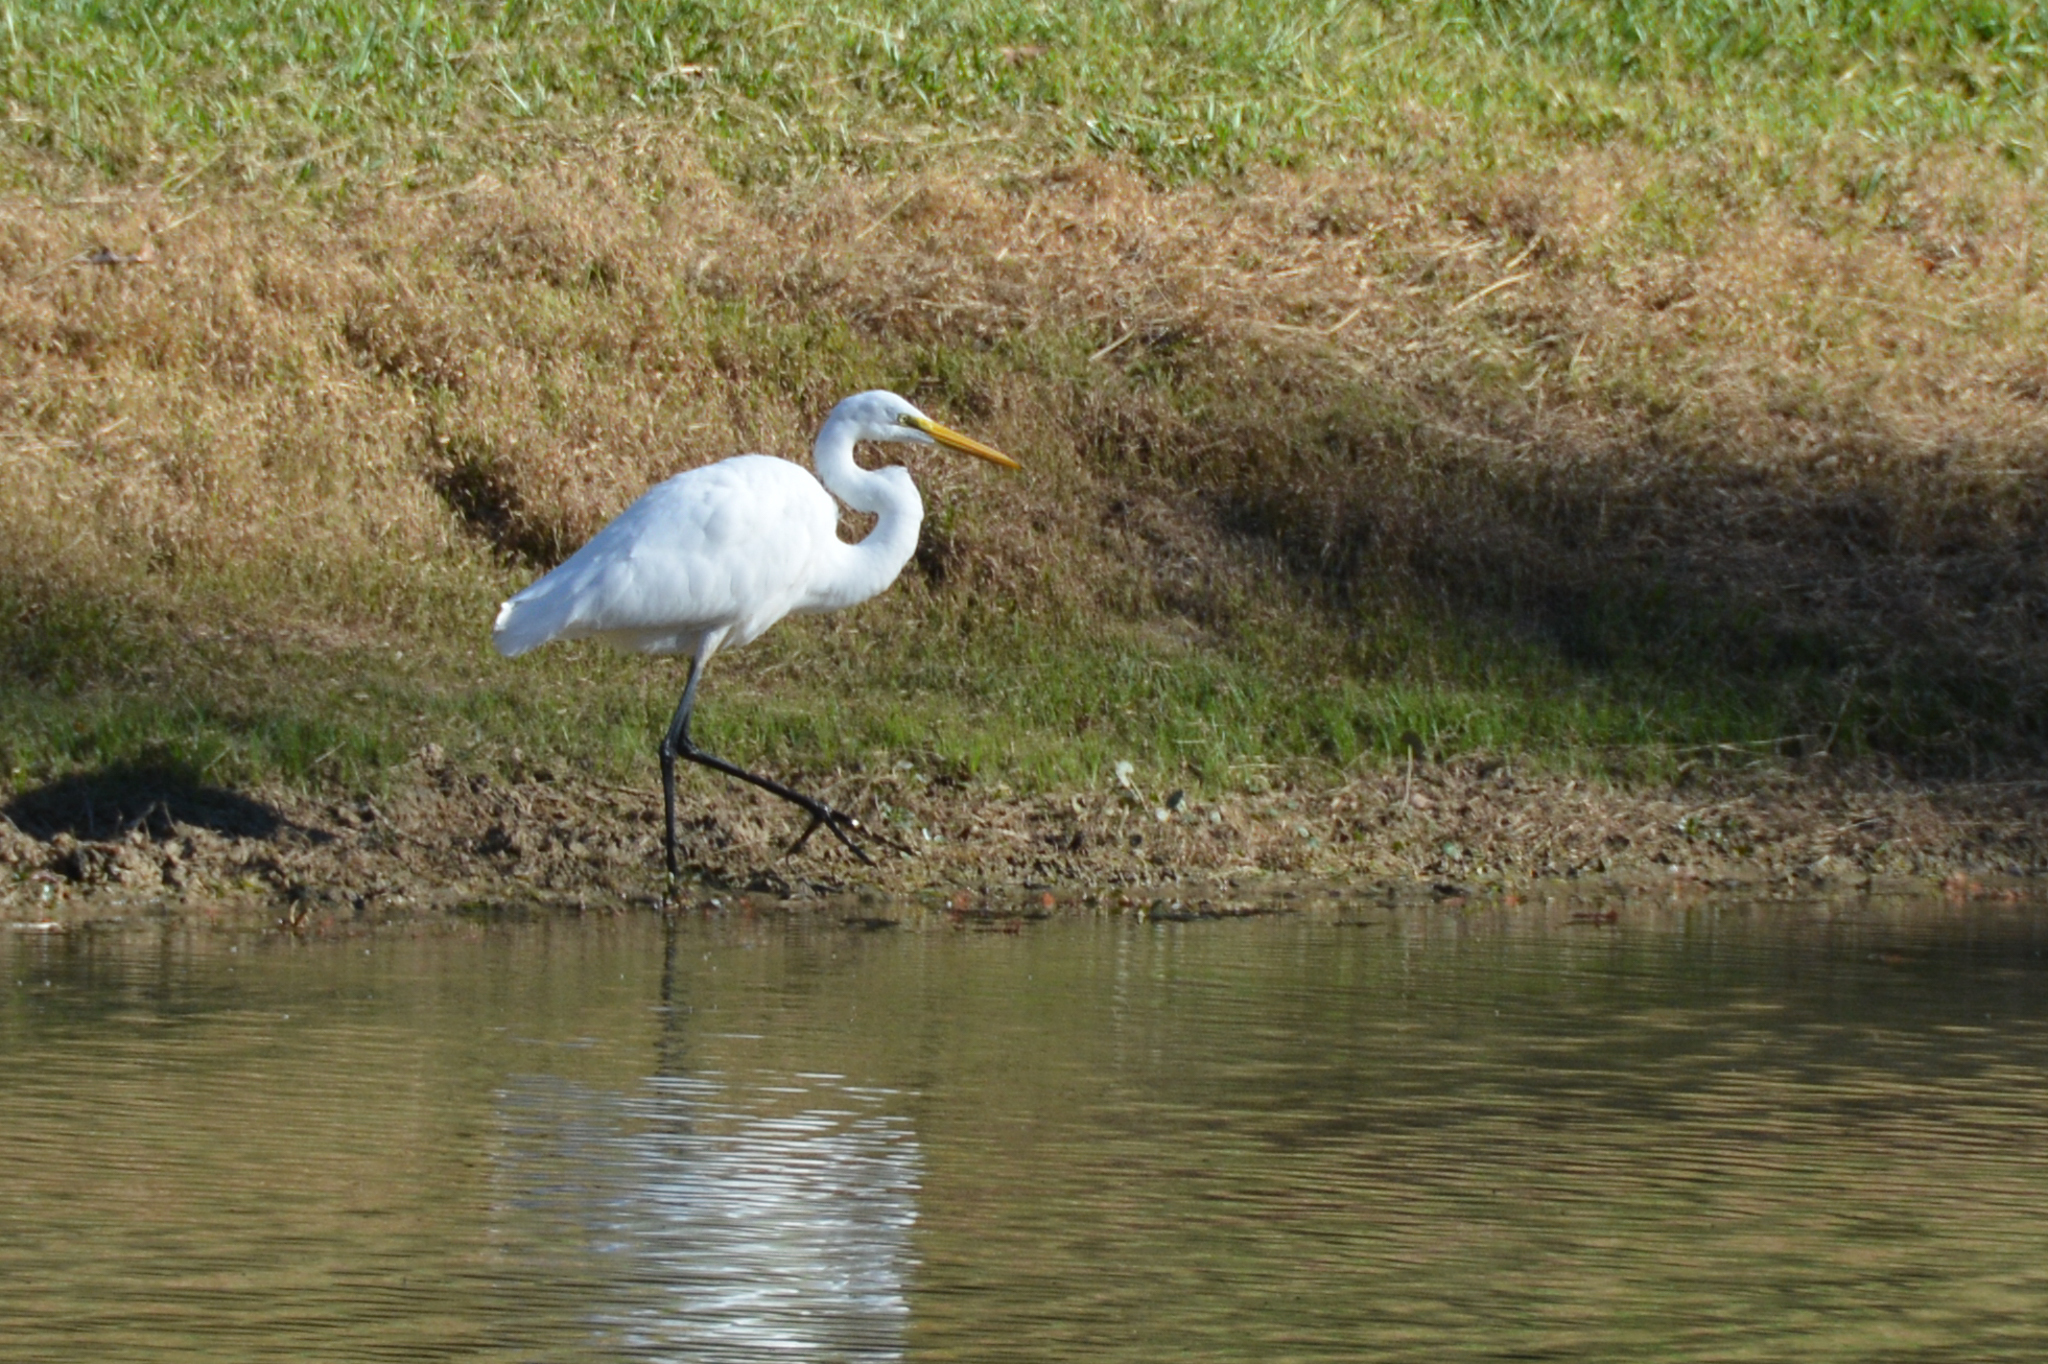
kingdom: Animalia
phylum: Chordata
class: Aves
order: Pelecaniformes
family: Ardeidae
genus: Ardea
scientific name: Ardea alba
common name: Great egret
